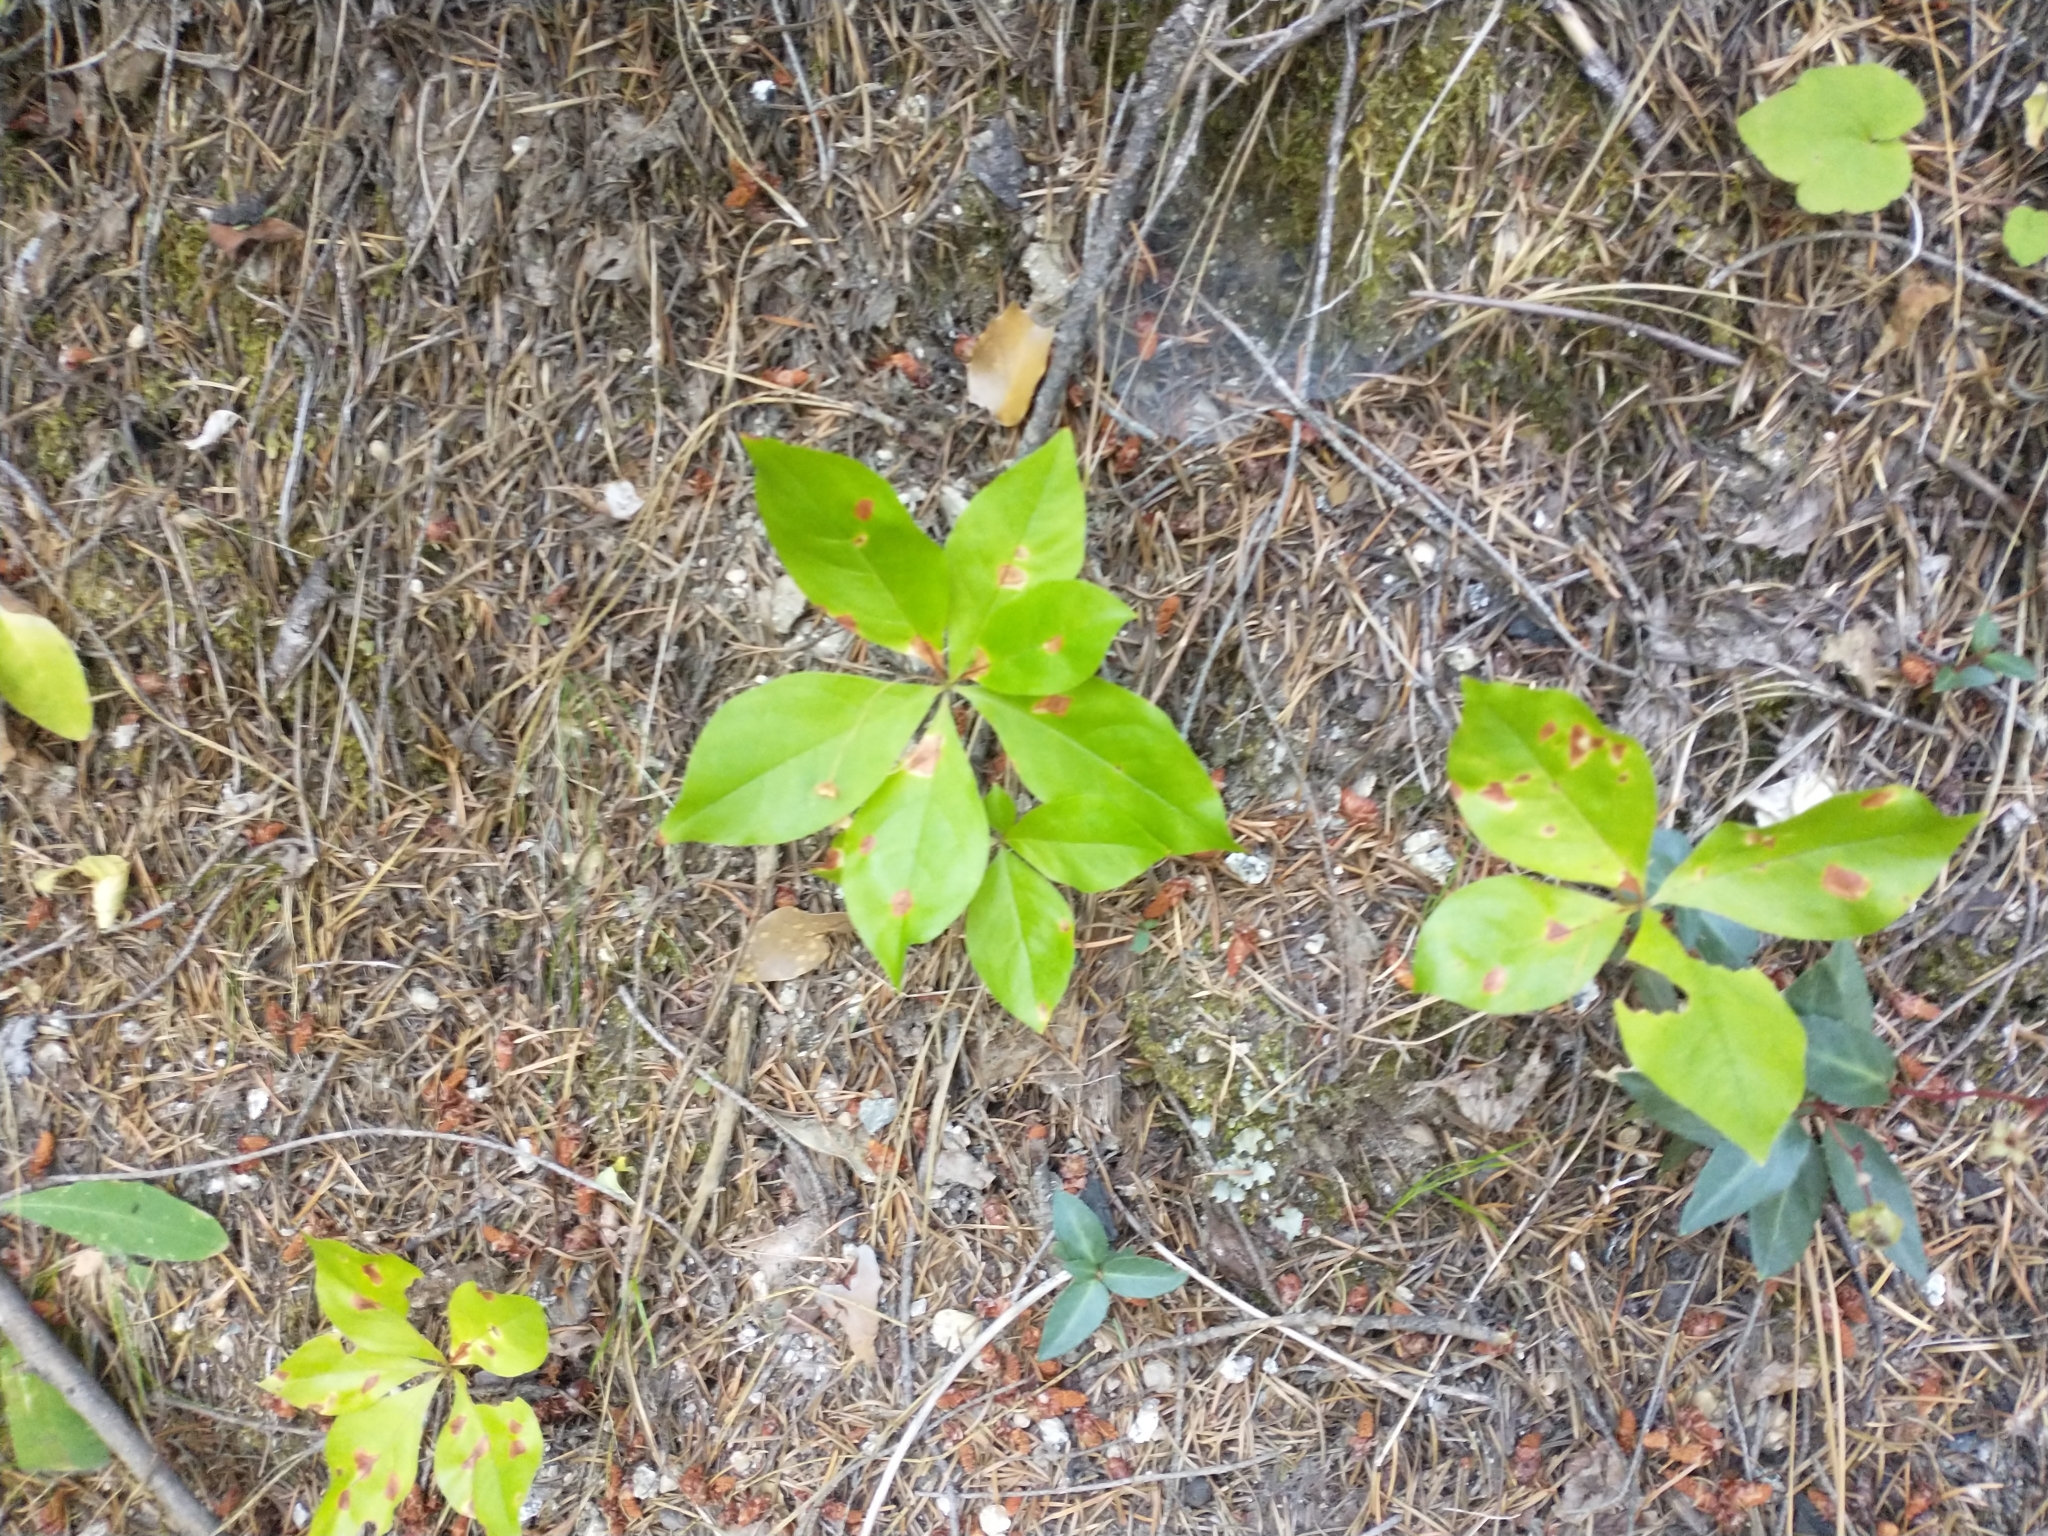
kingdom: Plantae
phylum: Tracheophyta
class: Magnoliopsida
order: Ericales
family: Primulaceae
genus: Lysimachia
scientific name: Lysimachia latifolia
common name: Pacific starflower
